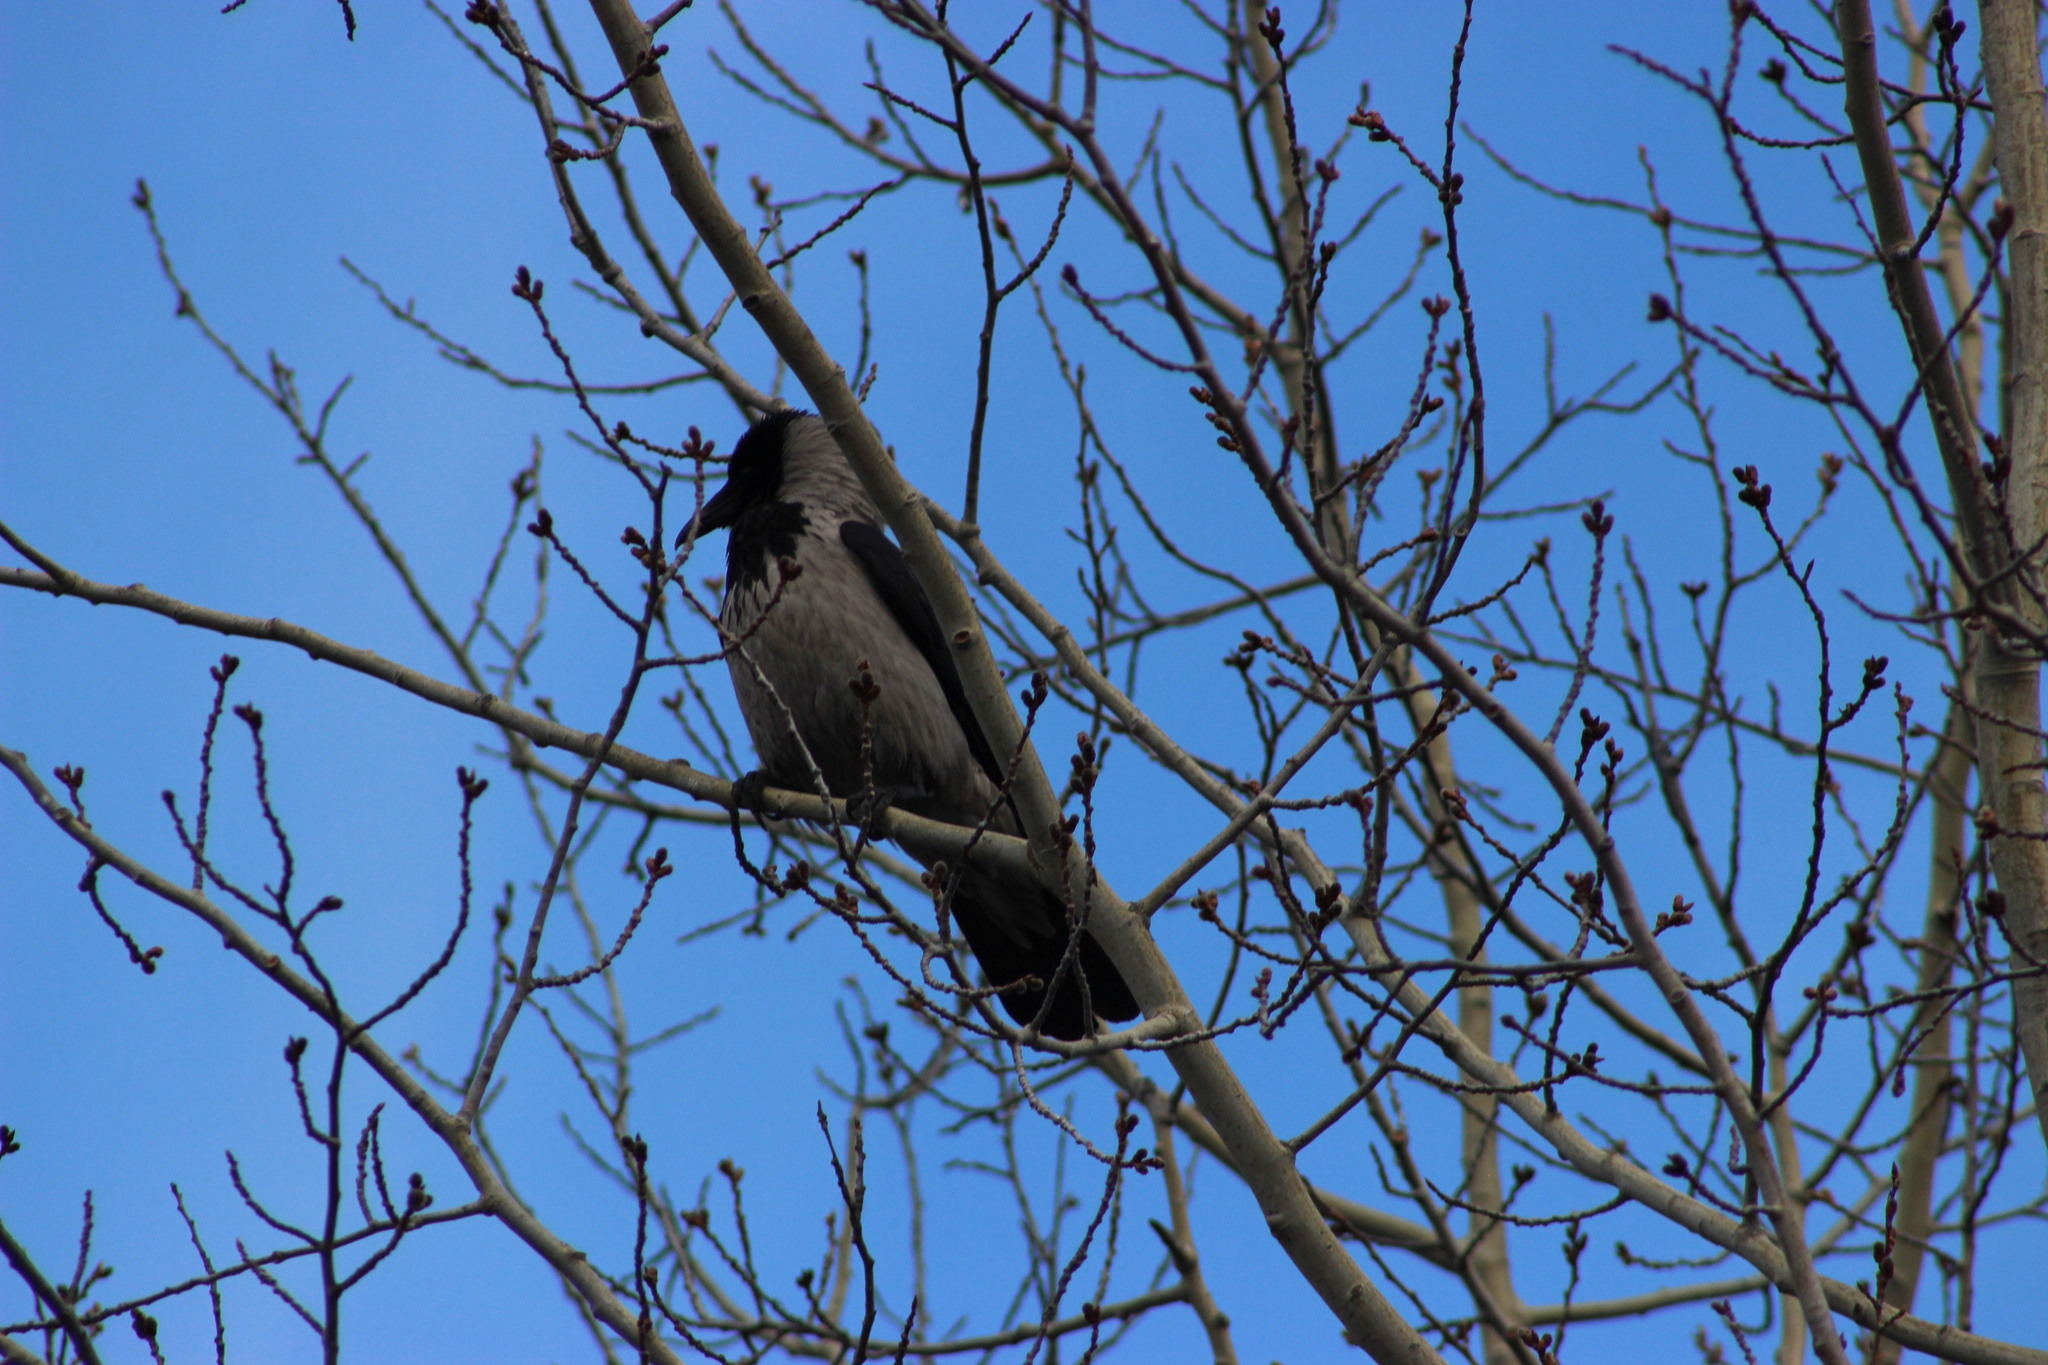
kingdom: Animalia
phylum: Chordata
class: Aves
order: Passeriformes
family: Corvidae
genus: Corvus
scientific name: Corvus cornix
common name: Hooded crow
